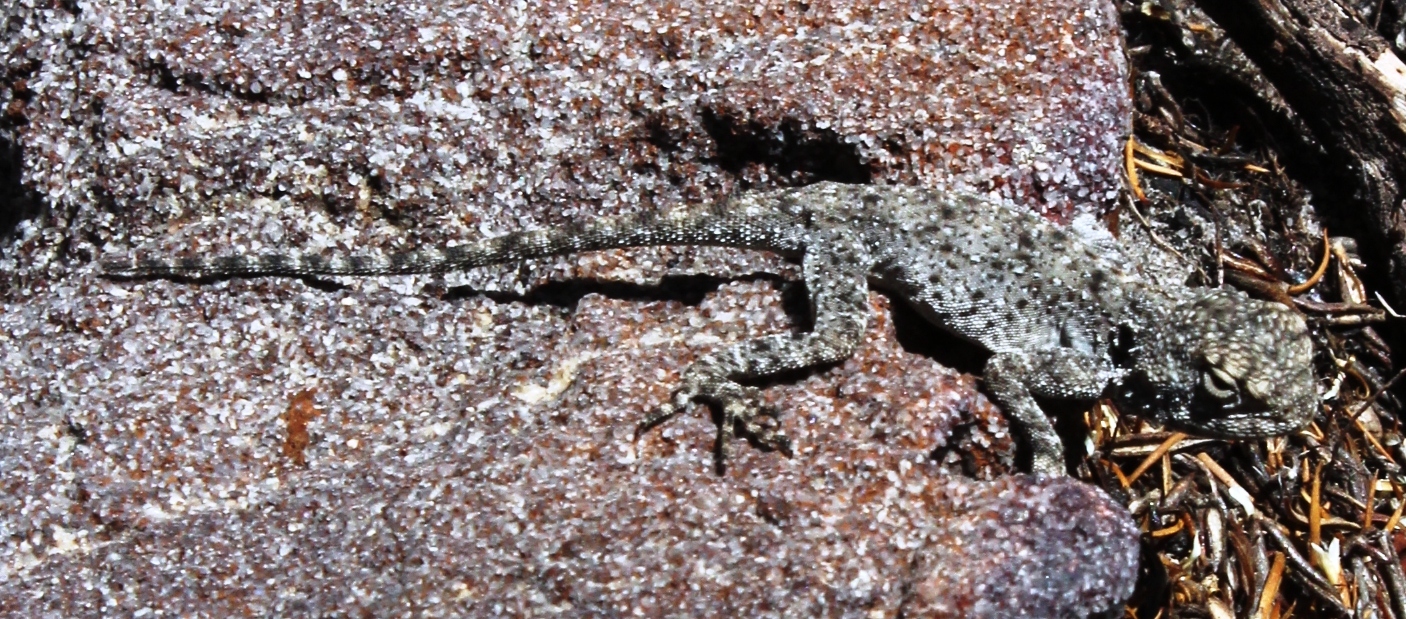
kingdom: Animalia
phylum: Chordata
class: Squamata
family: Agamidae
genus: Agama
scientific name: Agama atra
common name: Southern african rock agama
